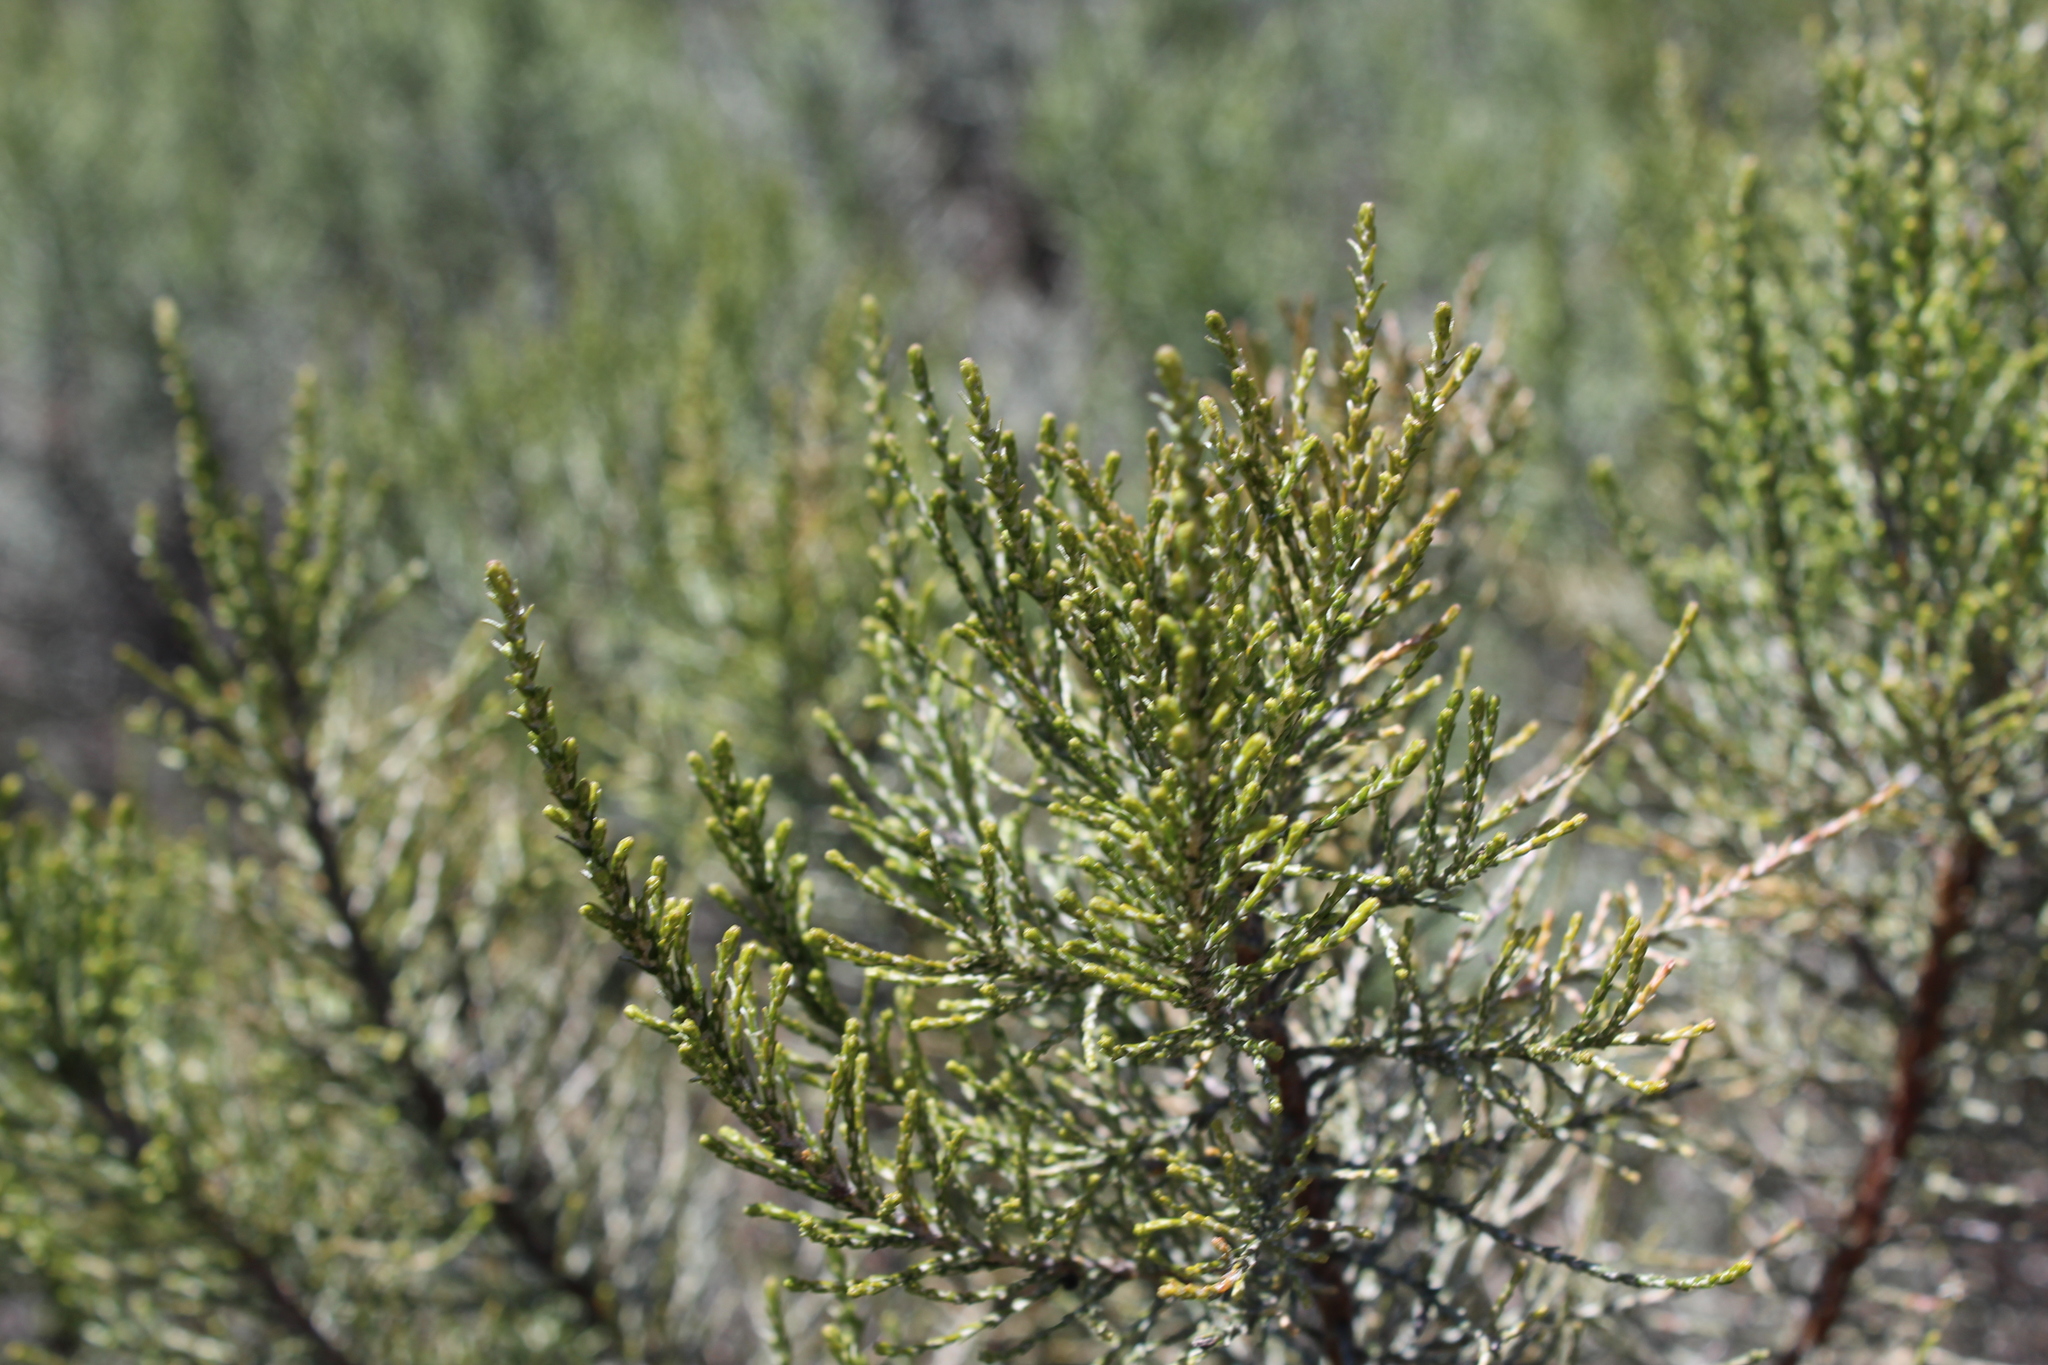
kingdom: Plantae
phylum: Tracheophyta
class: Magnoliopsida
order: Asterales
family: Asteraceae
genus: Dicerothamnus
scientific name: Dicerothamnus rhinocerotis
